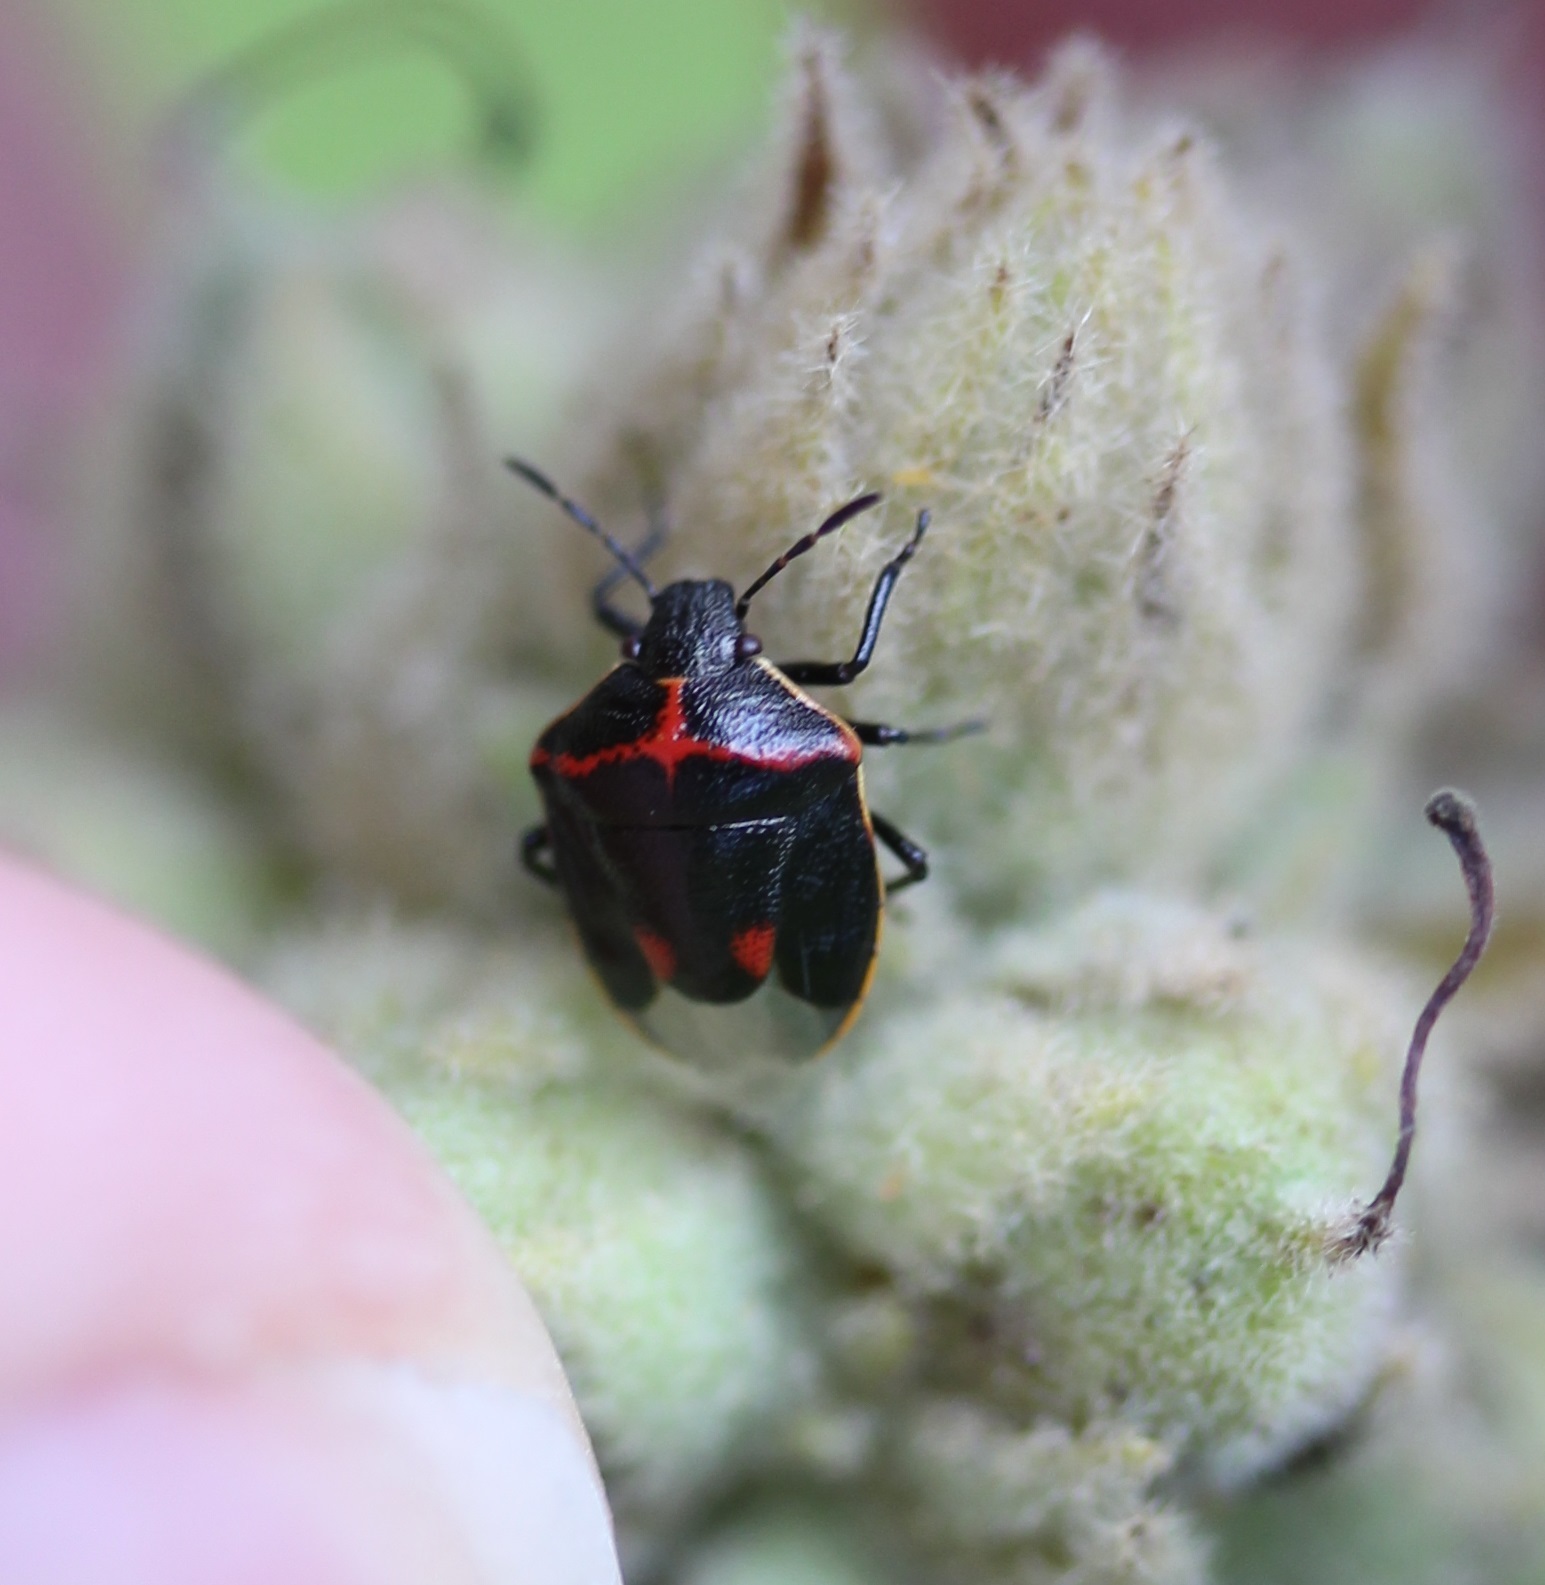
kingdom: Animalia
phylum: Arthropoda
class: Insecta
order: Hemiptera
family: Pentatomidae
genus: Cosmopepla
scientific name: Cosmopepla lintneriana
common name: Twice-stabbed stink bug
